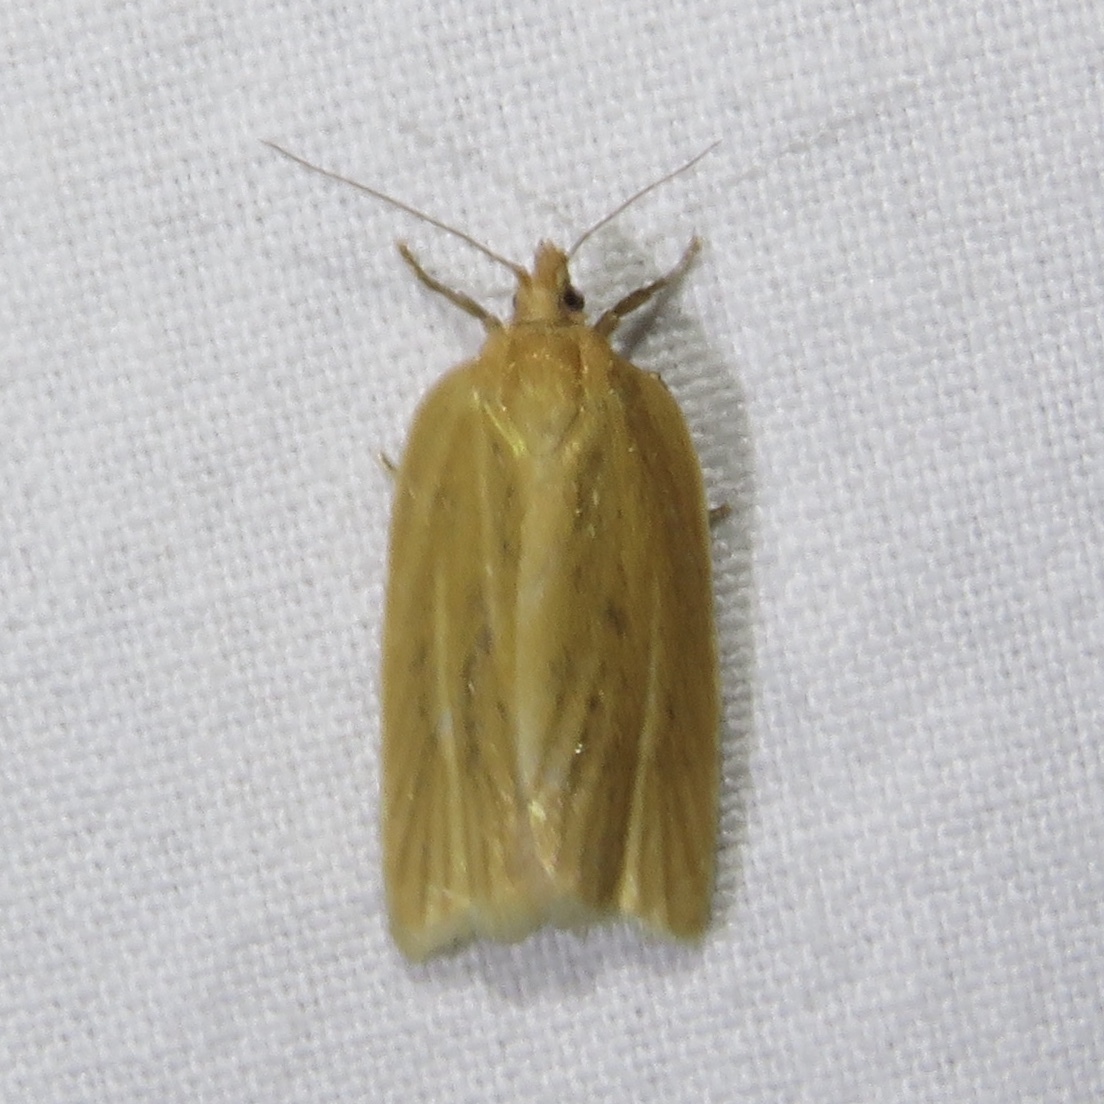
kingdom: Animalia
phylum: Arthropoda
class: Insecta
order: Lepidoptera
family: Tortricidae
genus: Clepsis
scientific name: Clepsis clemensiana
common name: Clemens' clepsis moth
